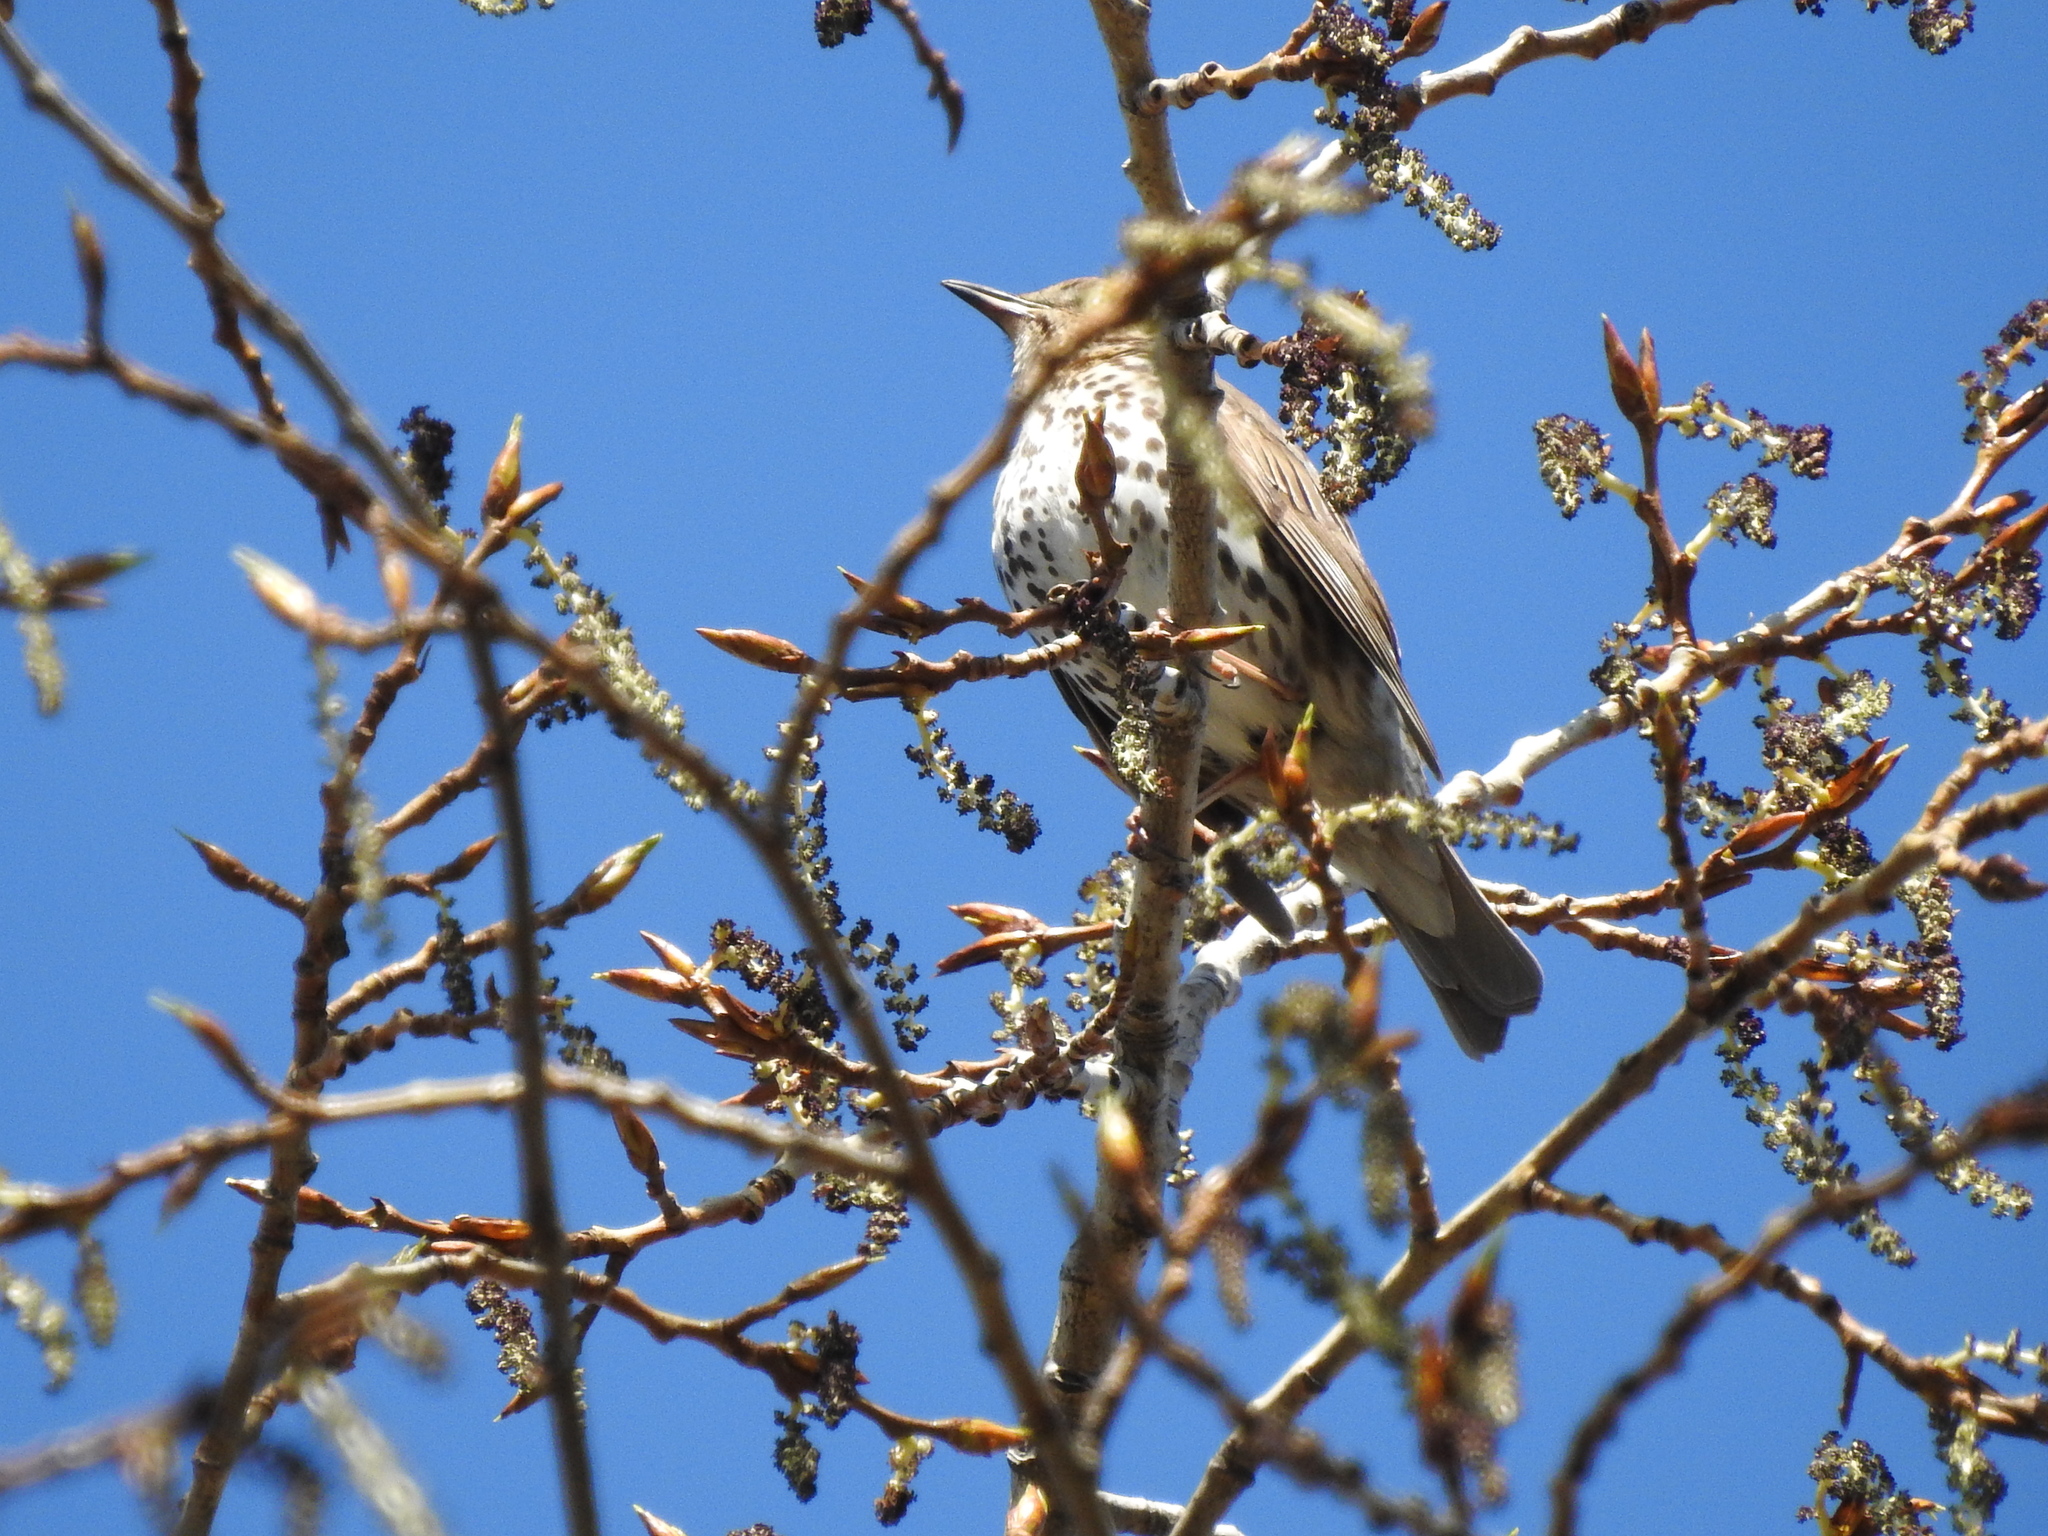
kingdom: Animalia
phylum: Chordata
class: Aves
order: Passeriformes
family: Turdidae
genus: Turdus
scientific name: Turdus philomelos
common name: Song thrush
